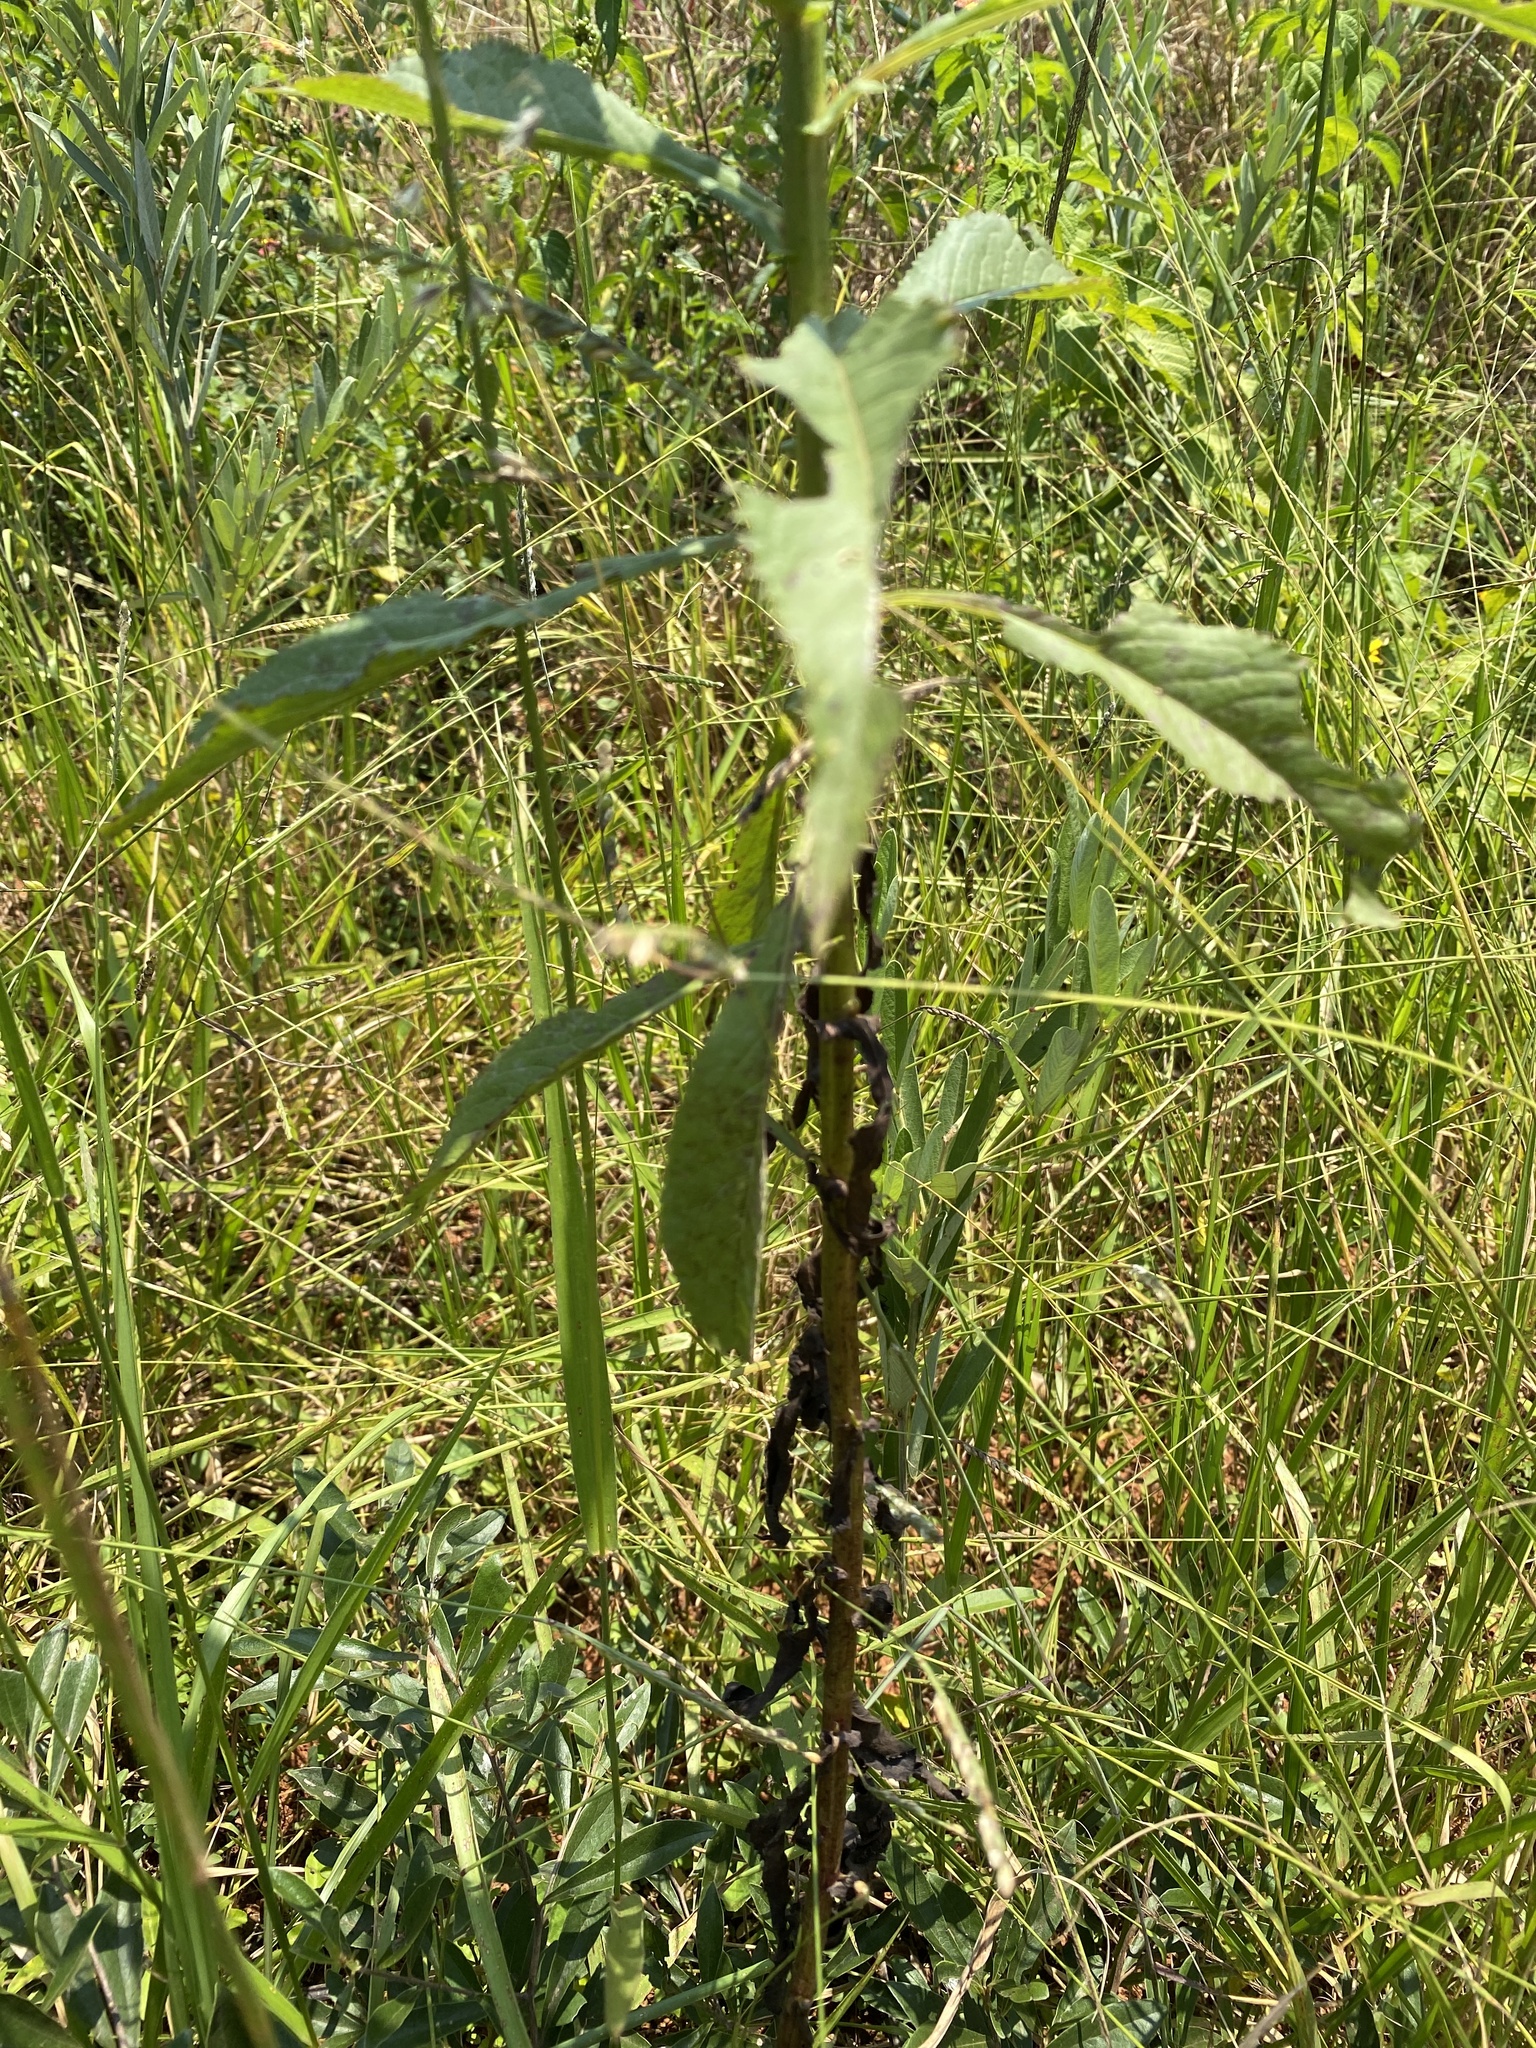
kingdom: Plantae
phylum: Tracheophyta
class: Magnoliopsida
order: Asterales
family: Asteraceae
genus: Senecio
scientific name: Senecio junodii
